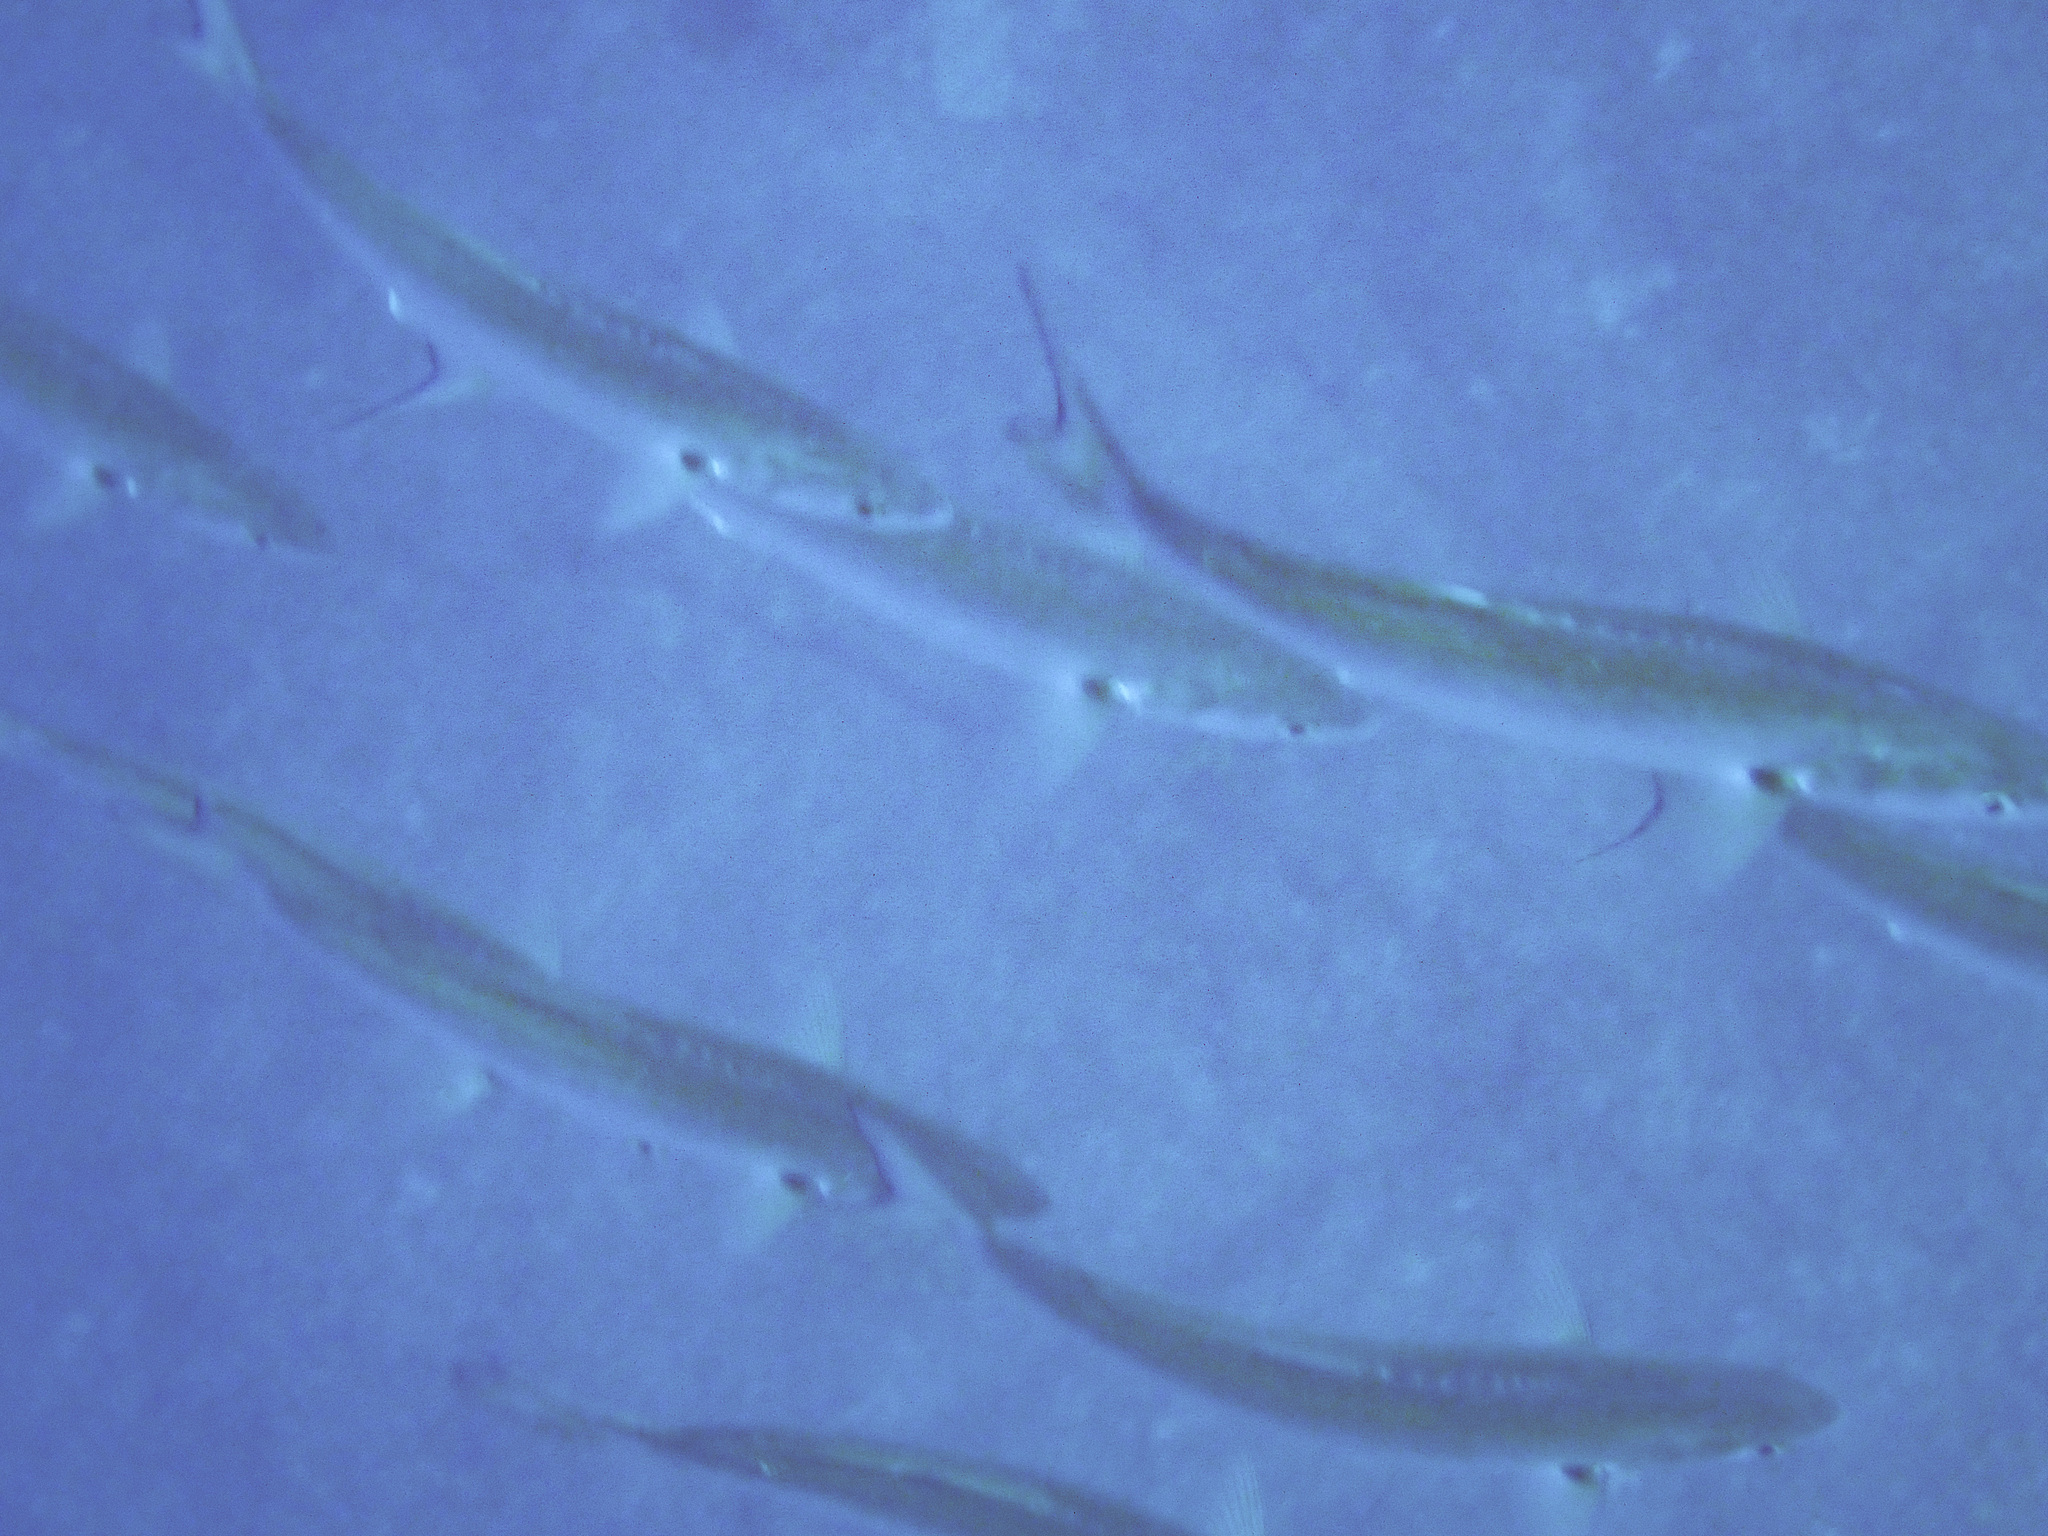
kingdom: Animalia
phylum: Chordata
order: Perciformes
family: Pomatomidae
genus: Pomatomus
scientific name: Pomatomus saltatrix
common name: Bluefish
